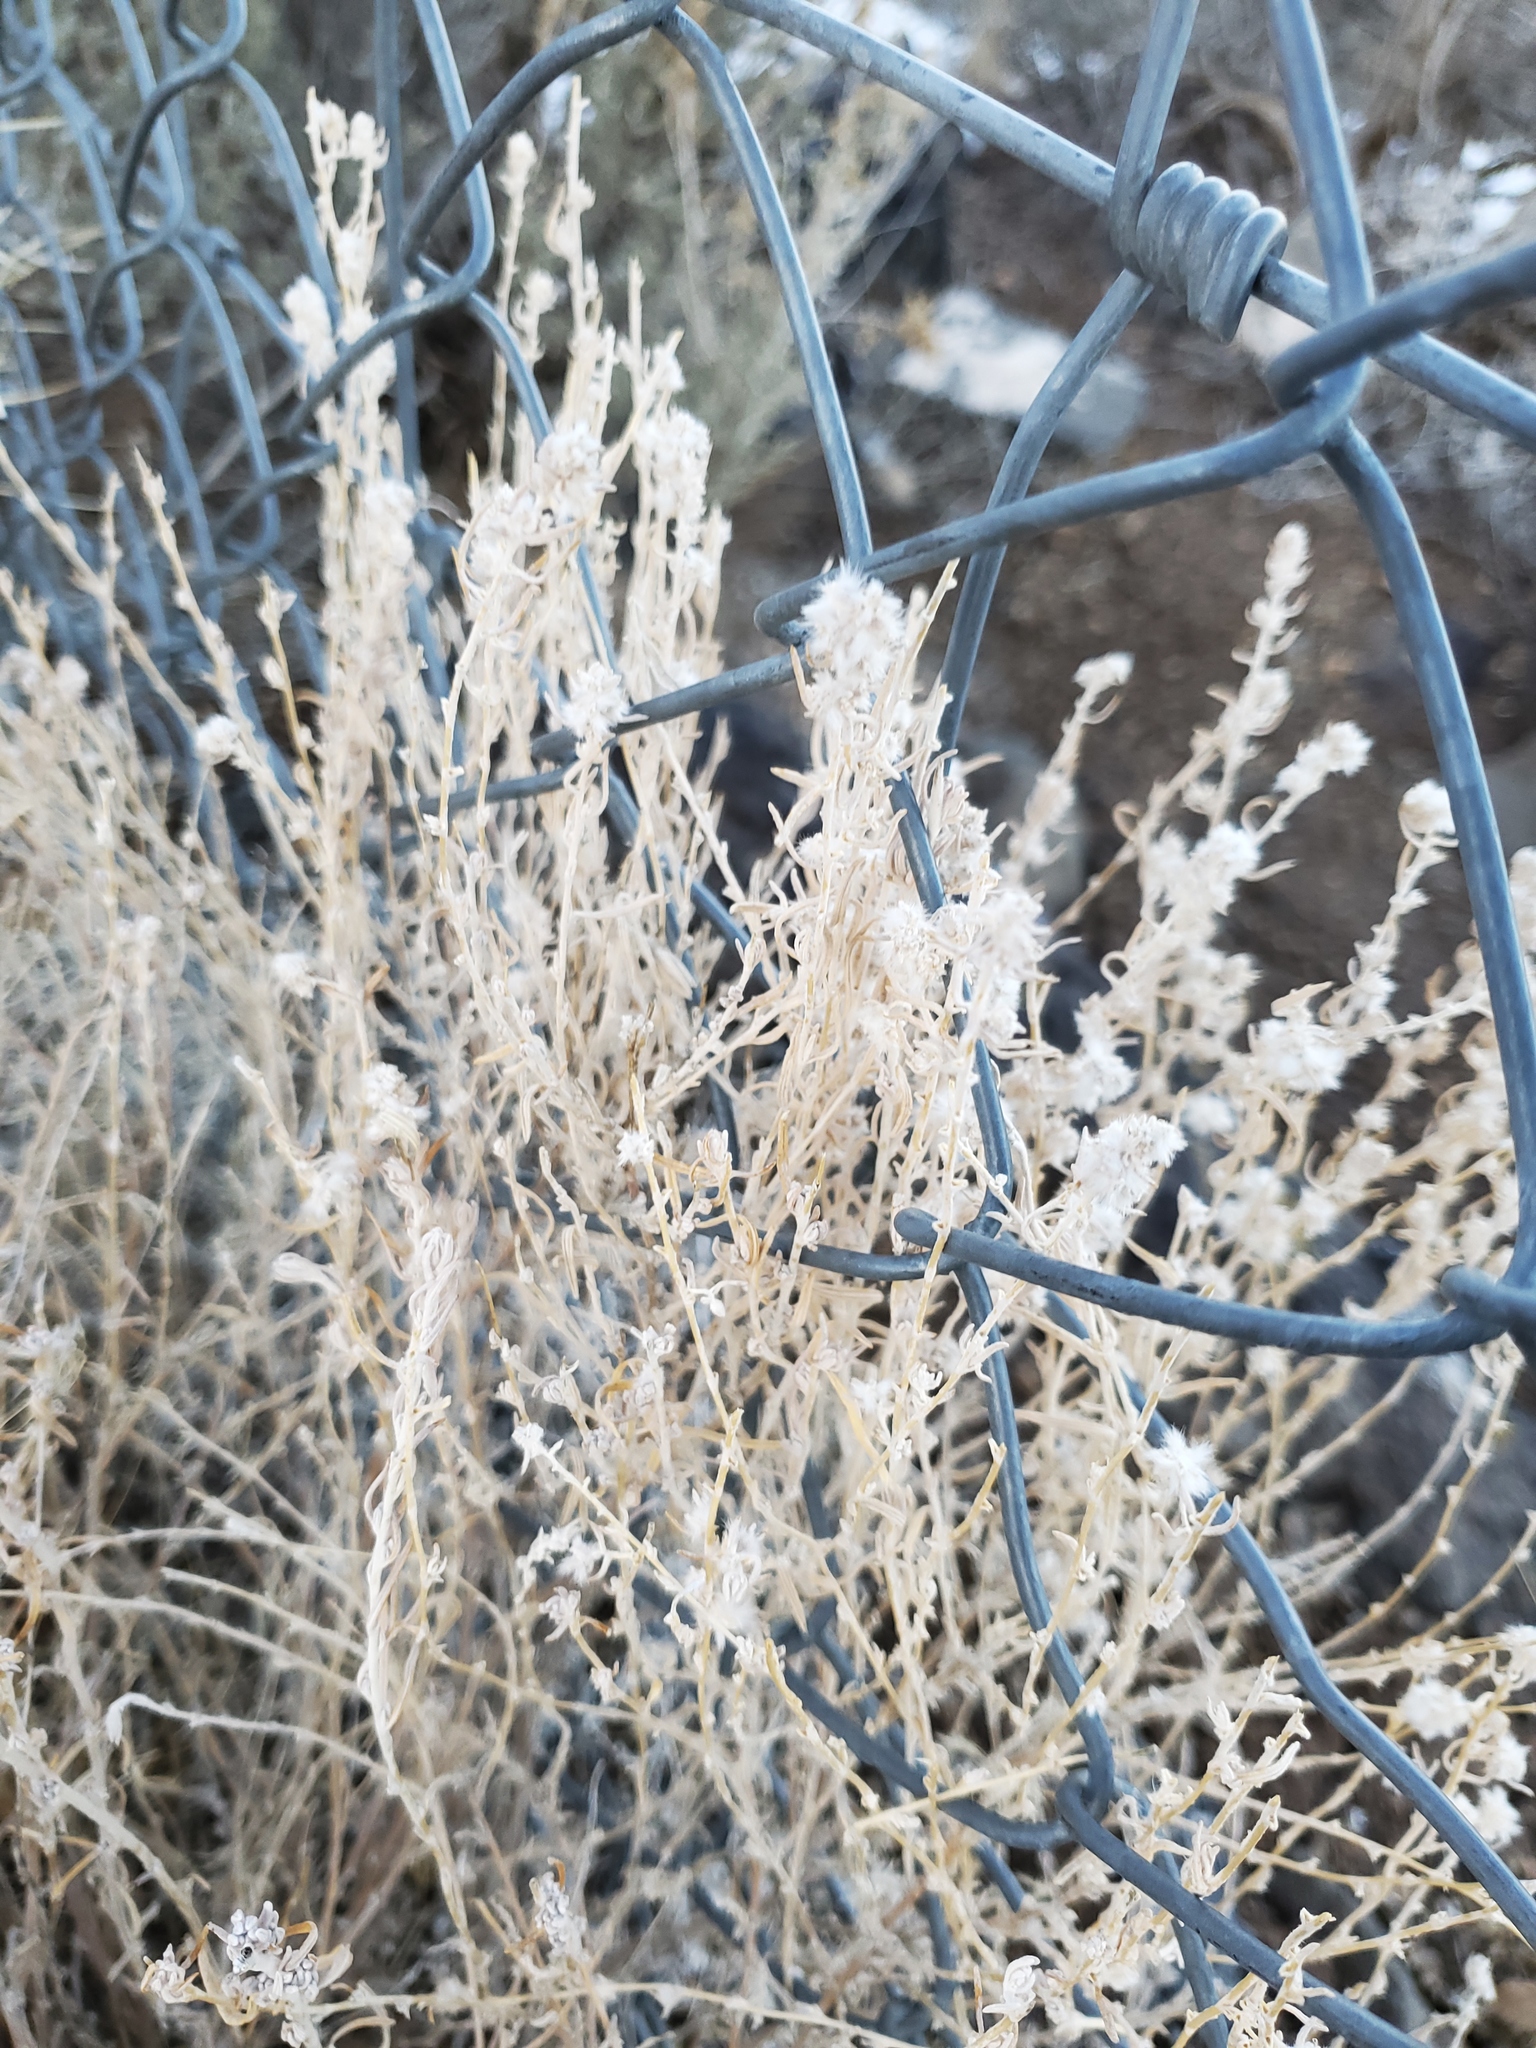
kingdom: Plantae
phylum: Tracheophyta
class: Magnoliopsida
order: Caryophyllales
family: Amaranthaceae
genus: Krascheninnikovia
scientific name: Krascheninnikovia lanata
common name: Winterfat
